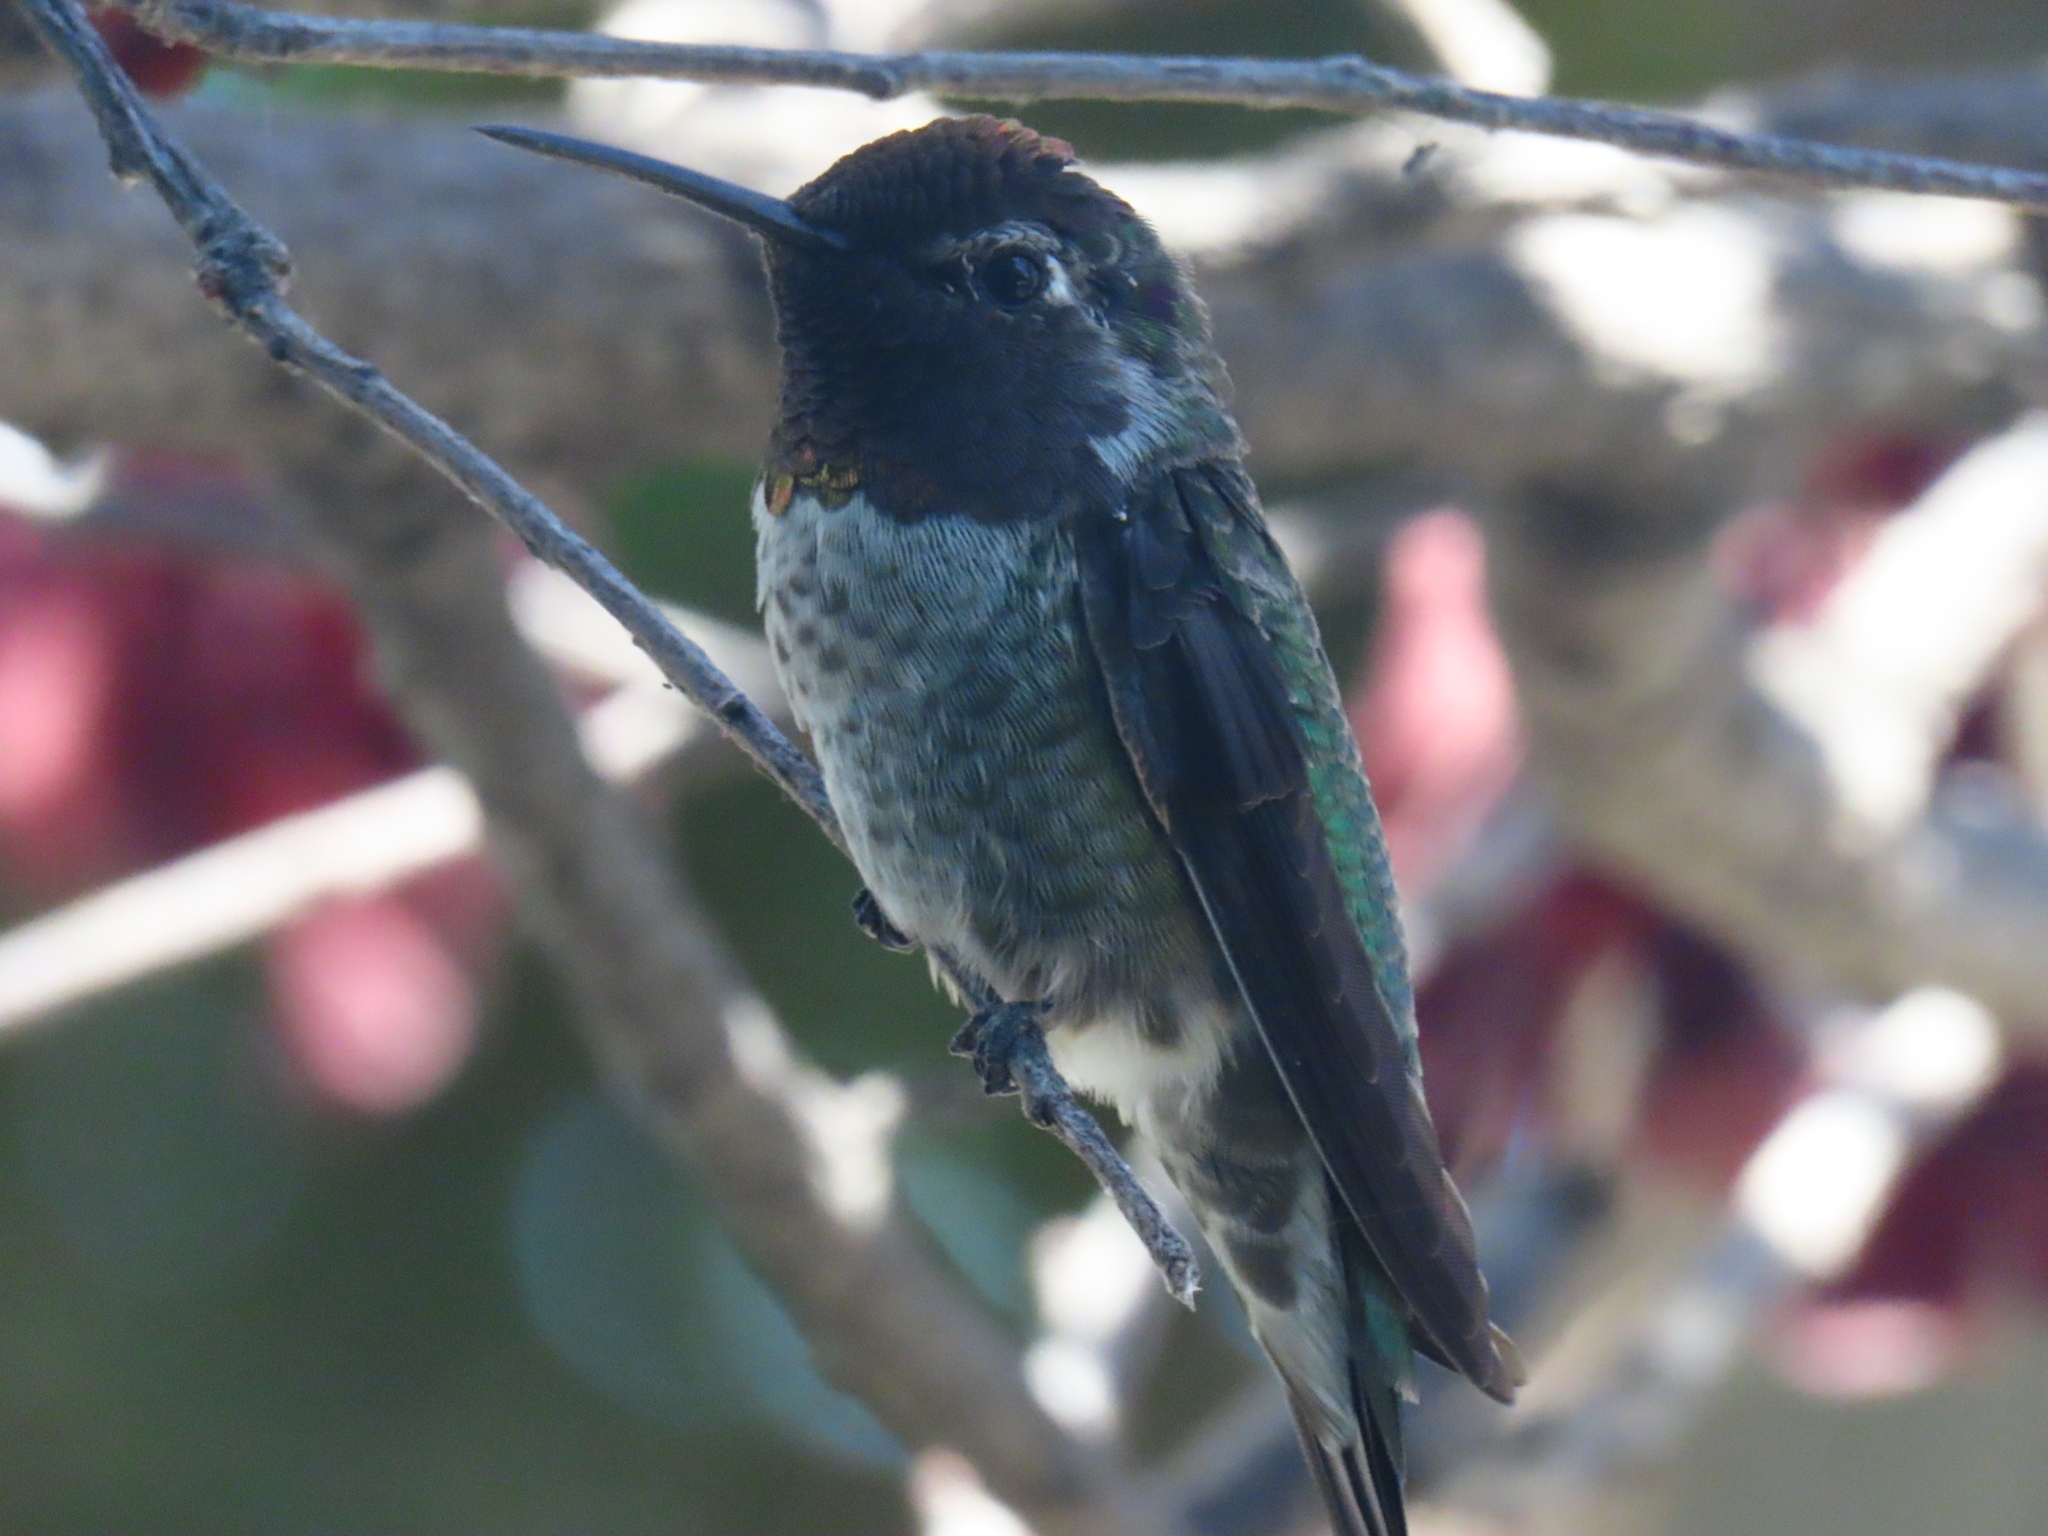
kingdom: Animalia
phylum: Chordata
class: Aves
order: Apodiformes
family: Trochilidae
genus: Calypte
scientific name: Calypte anna
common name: Anna's hummingbird
